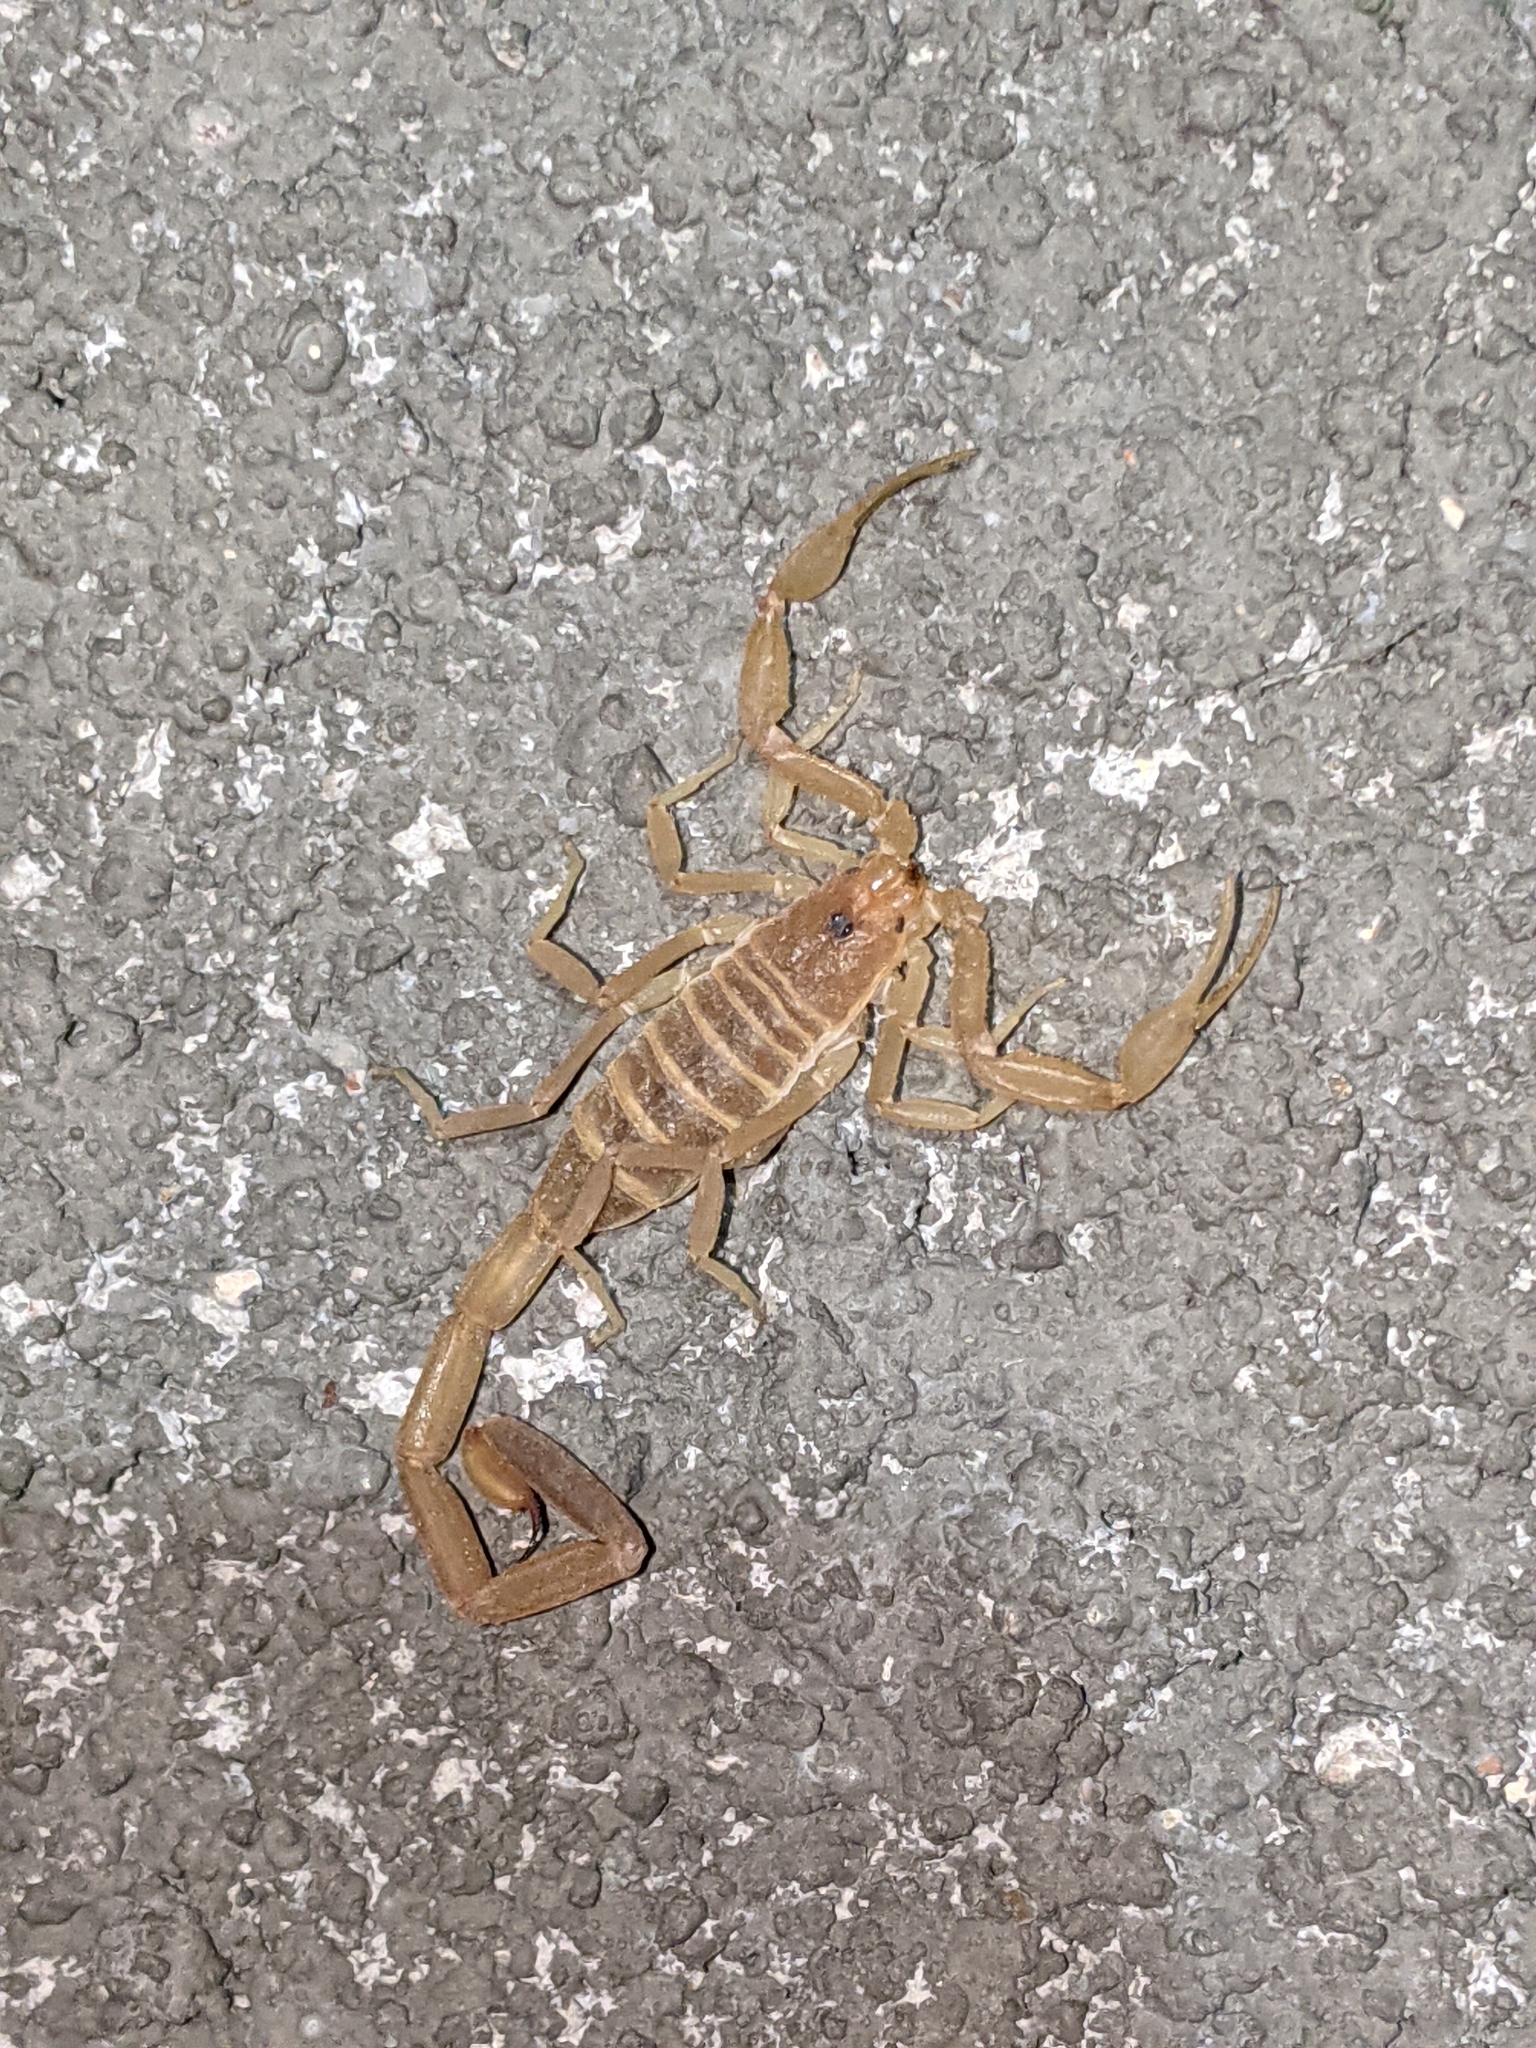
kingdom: Animalia
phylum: Arthropoda
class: Arachnida
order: Scorpiones
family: Buthidae
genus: Centruroides
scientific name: Centruroides vittatus
